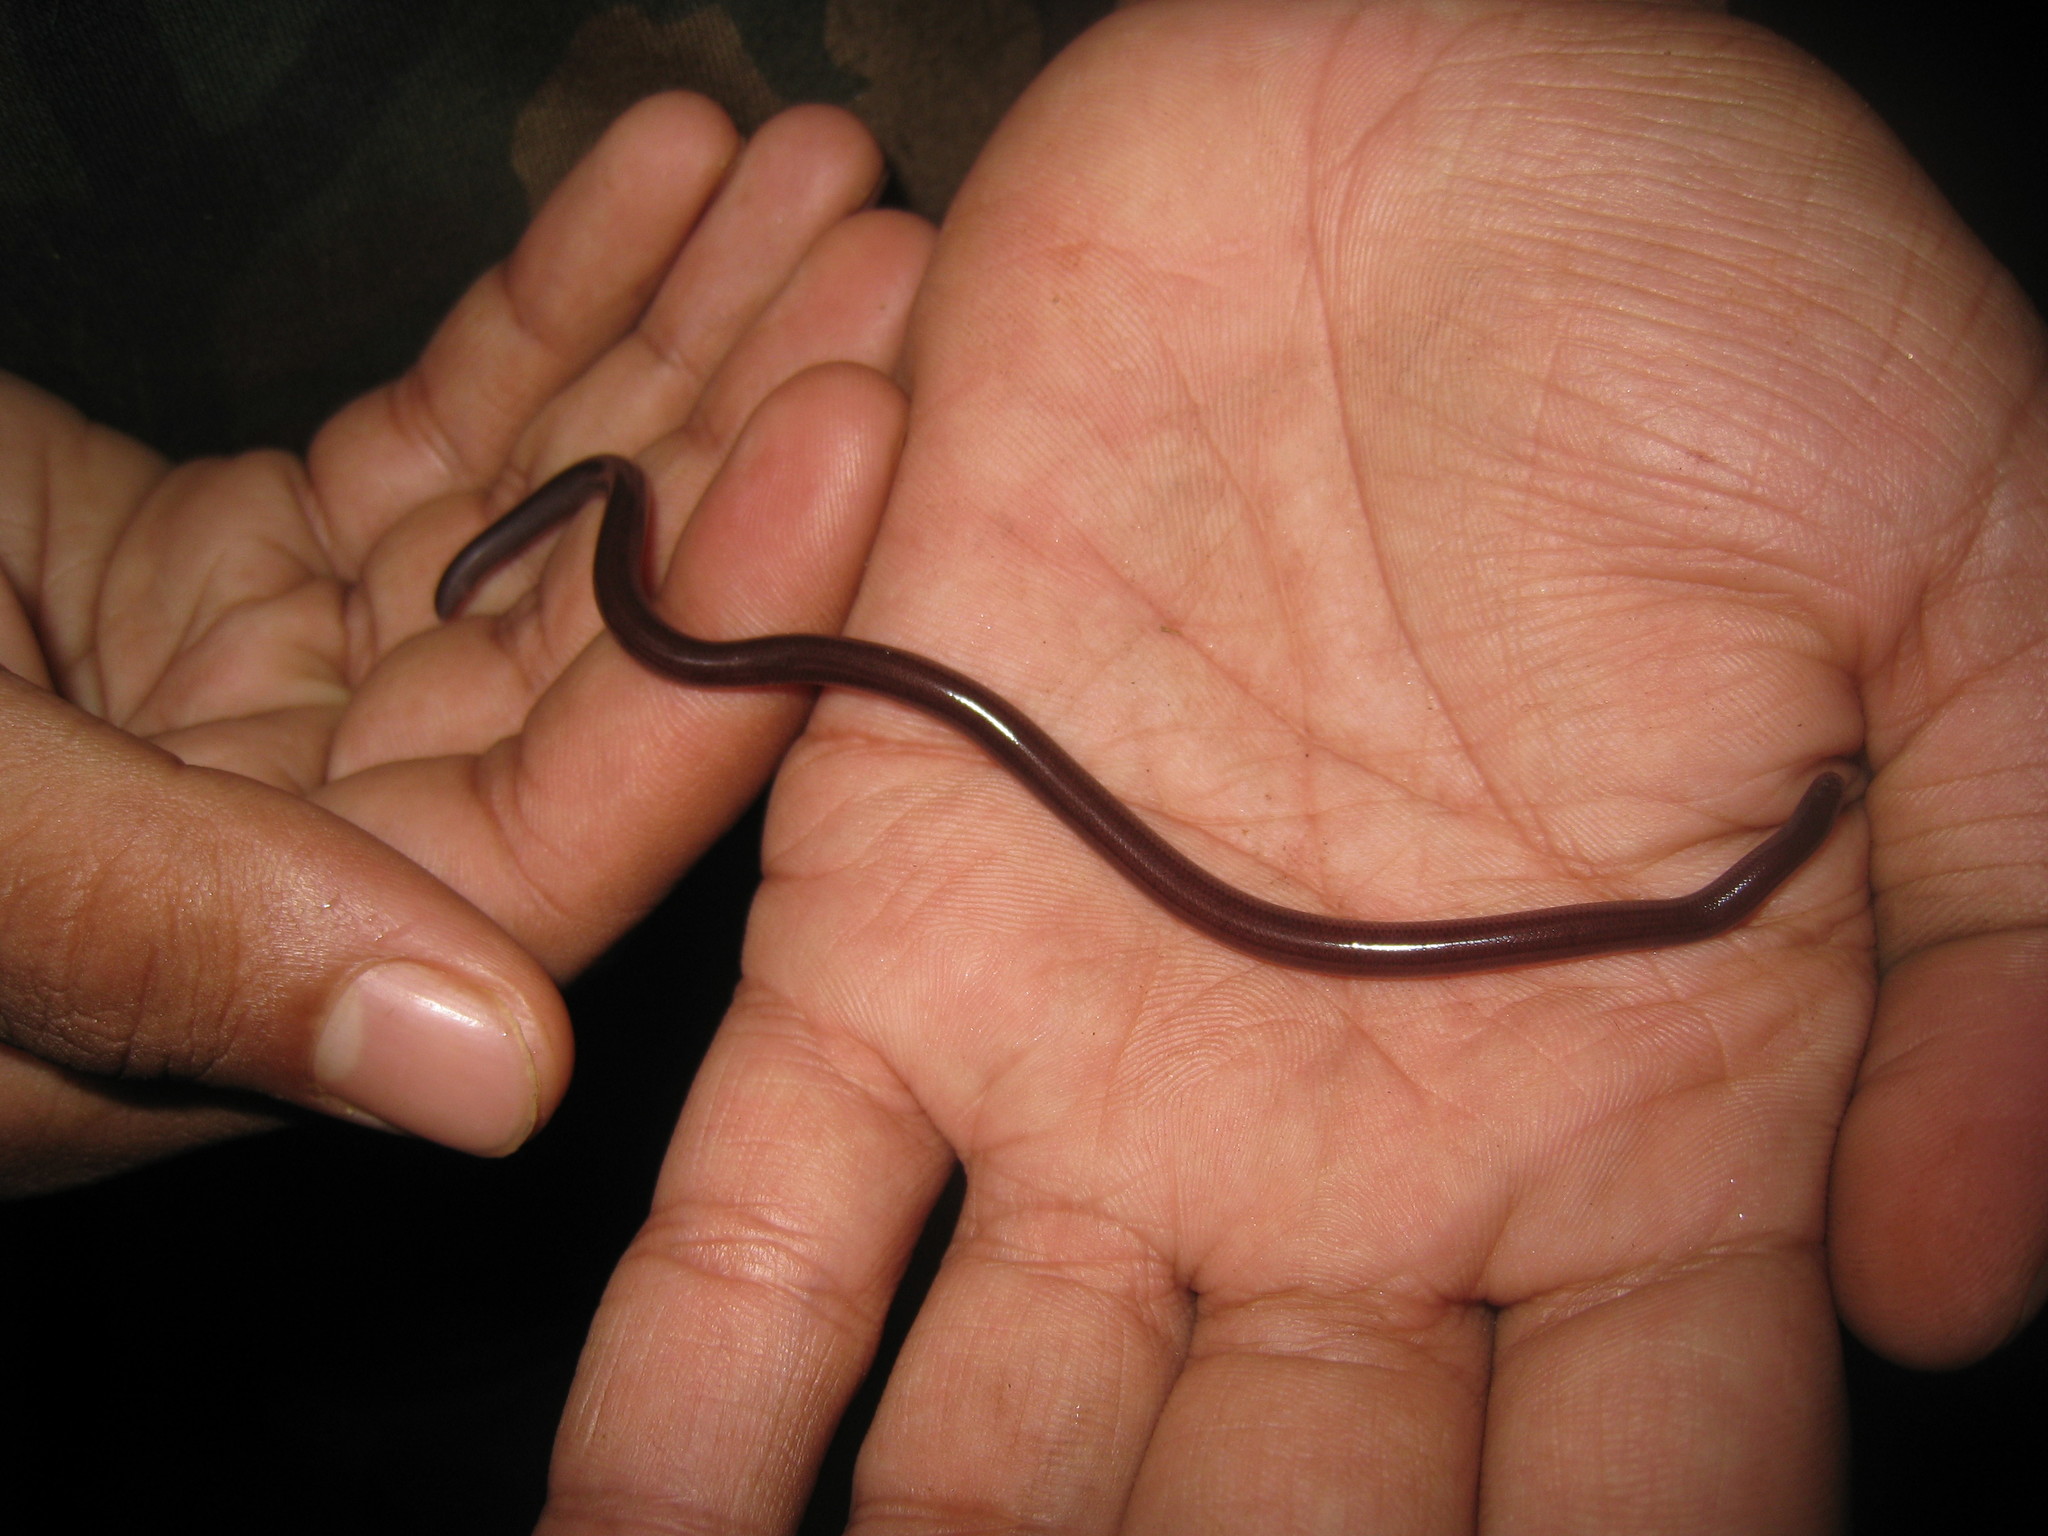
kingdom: Animalia
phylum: Chordata
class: Squamata
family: Typhlopidae
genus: Indotyphlops
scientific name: Indotyphlops braminus
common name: Brahminy blindsnake
